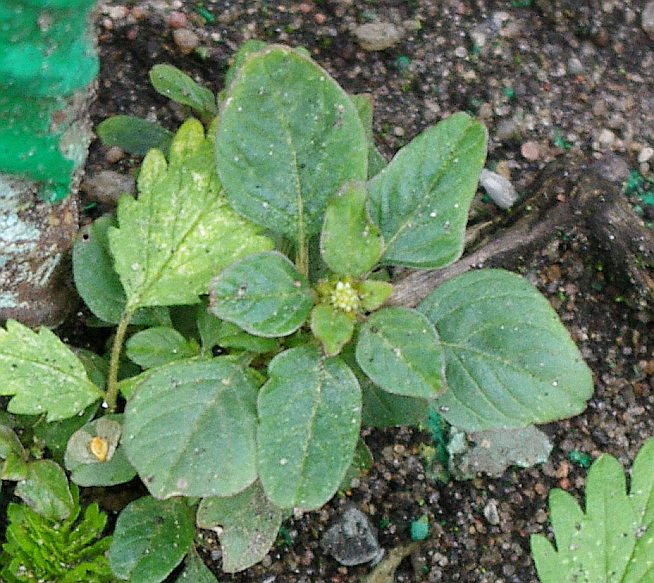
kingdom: Plantae
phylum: Tracheophyta
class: Magnoliopsida
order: Caryophyllales
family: Amaranthaceae
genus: Amaranthus
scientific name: Amaranthus blitum
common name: Purple amaranth
